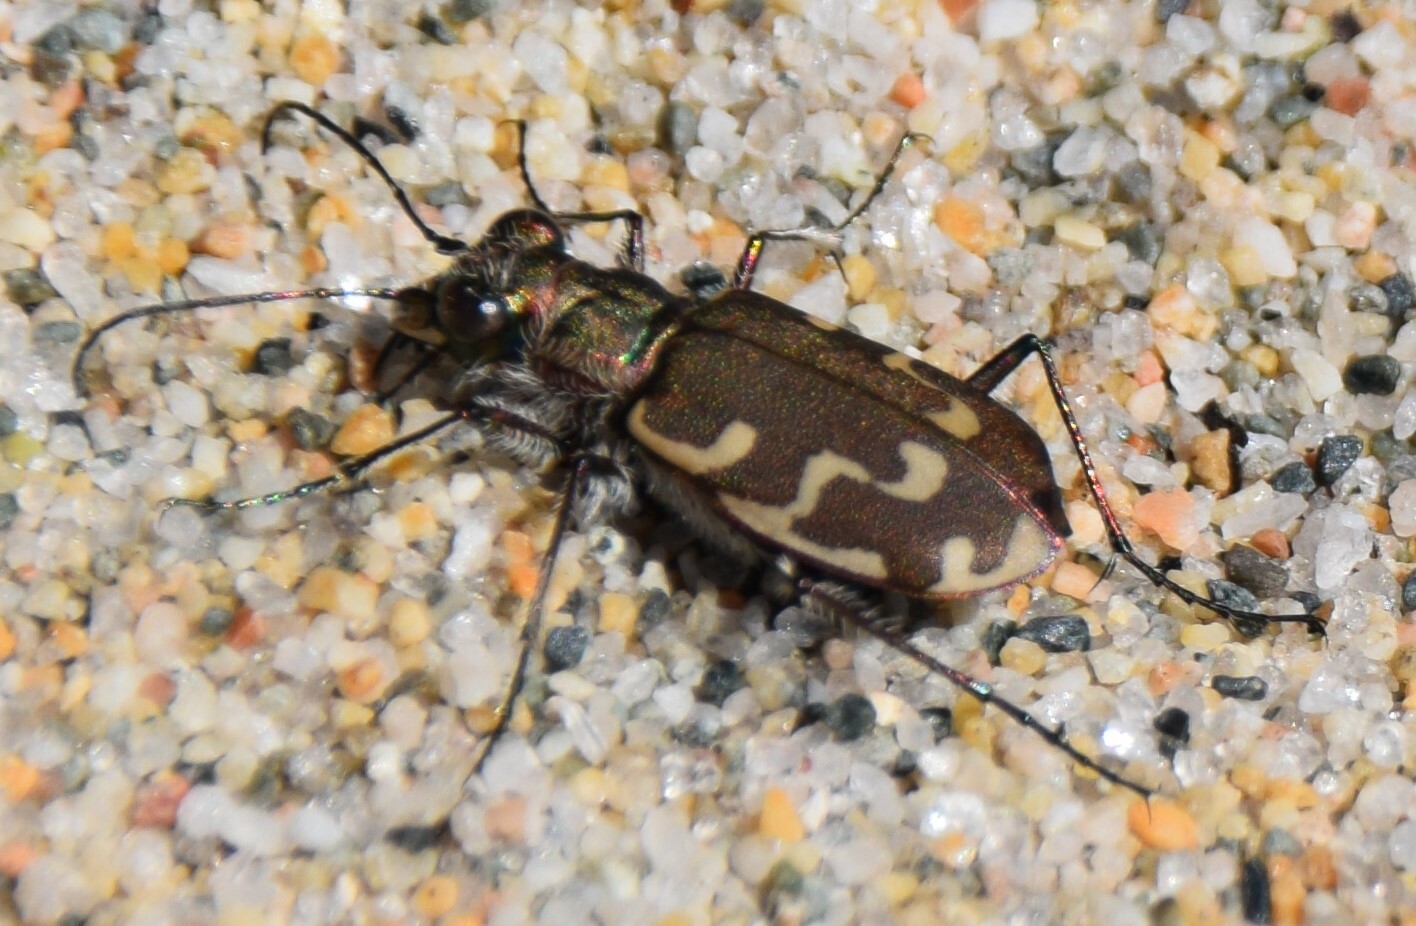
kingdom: Animalia
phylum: Arthropoda
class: Insecta
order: Coleoptera
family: Carabidae
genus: Cicindela
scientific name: Cicindela repanda
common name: Bronzed tiger beetle
